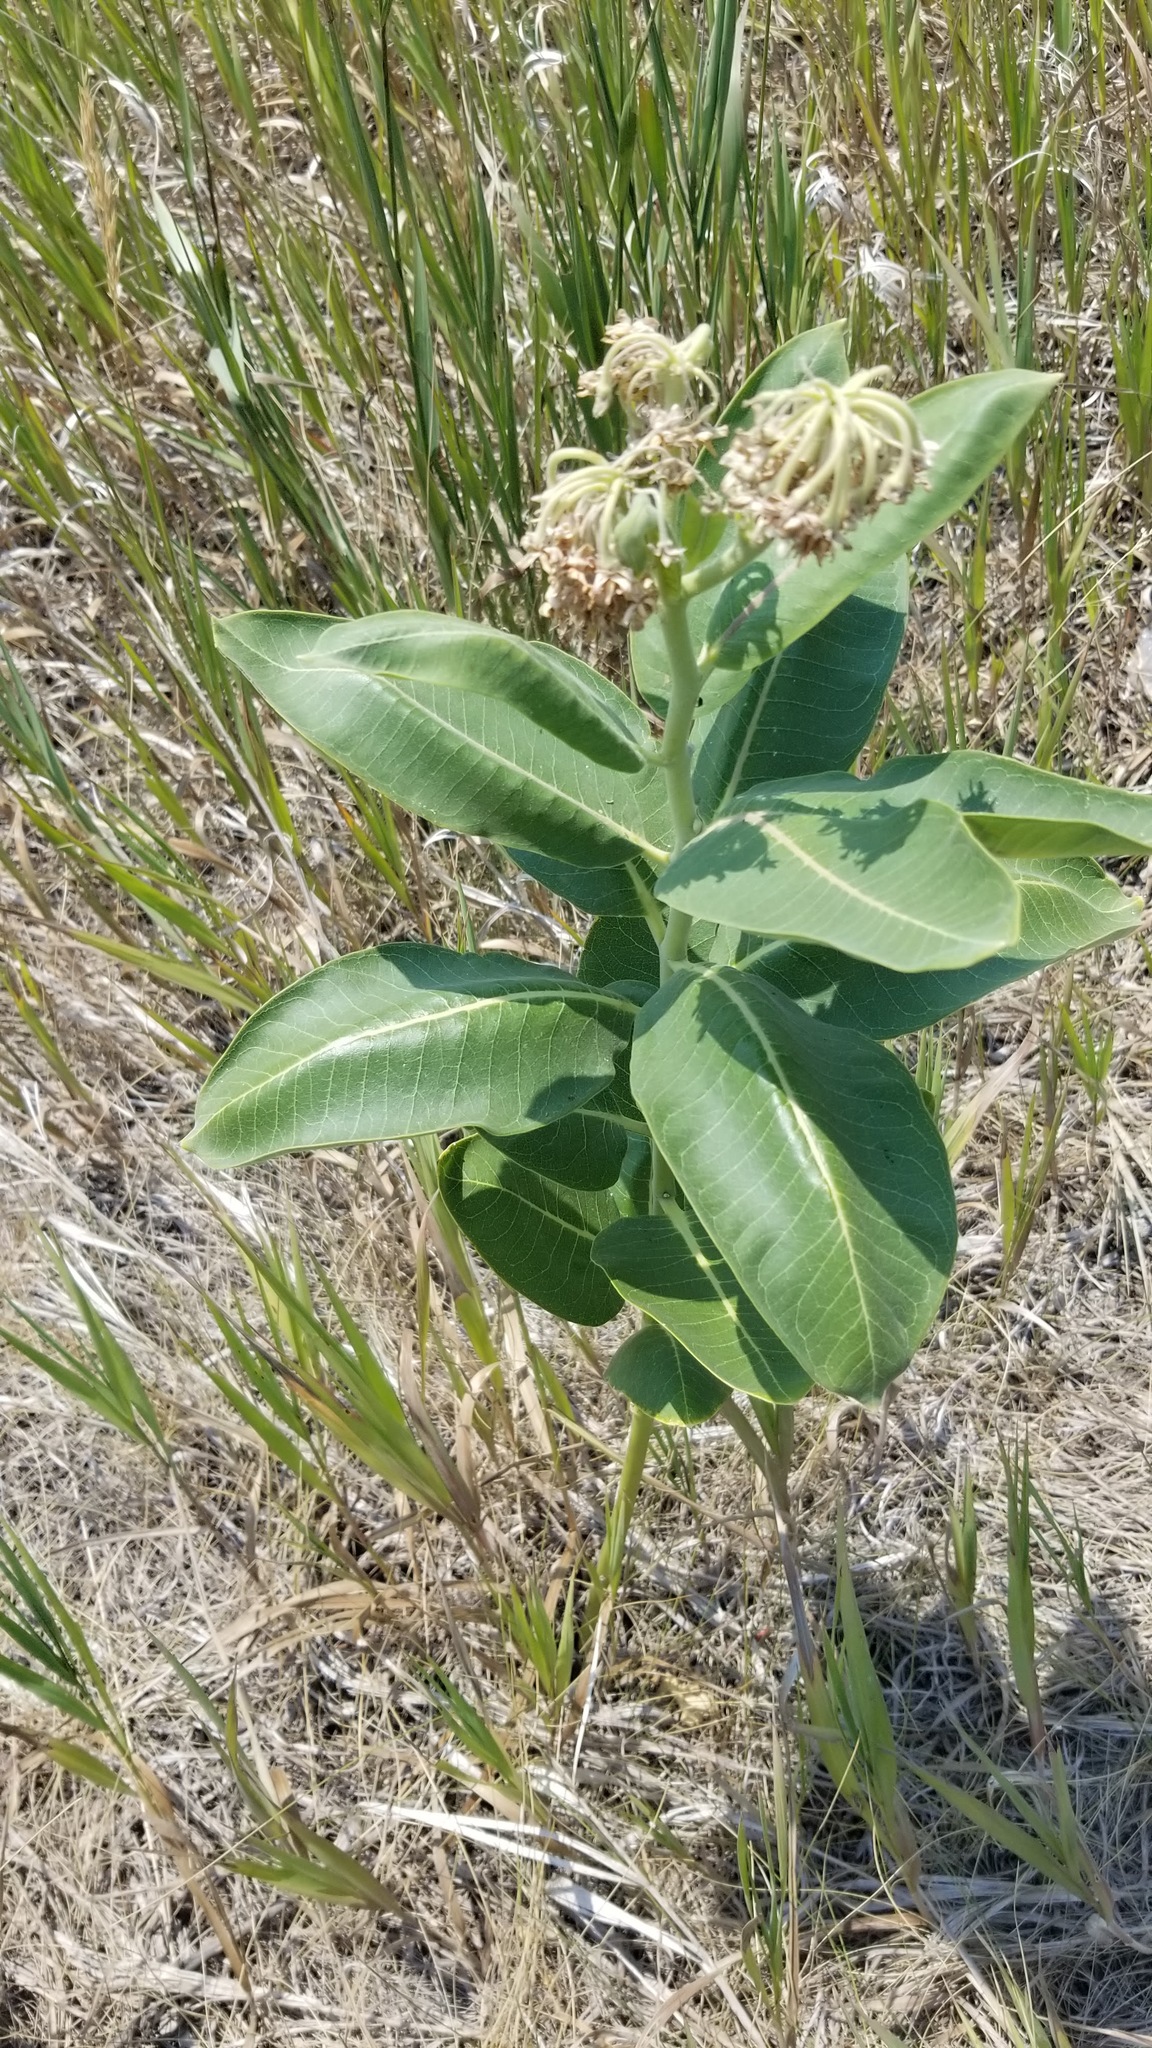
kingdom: Plantae
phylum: Tracheophyta
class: Magnoliopsida
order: Gentianales
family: Apocynaceae
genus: Asclepias
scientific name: Asclepias speciosa
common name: Showy milkweed
